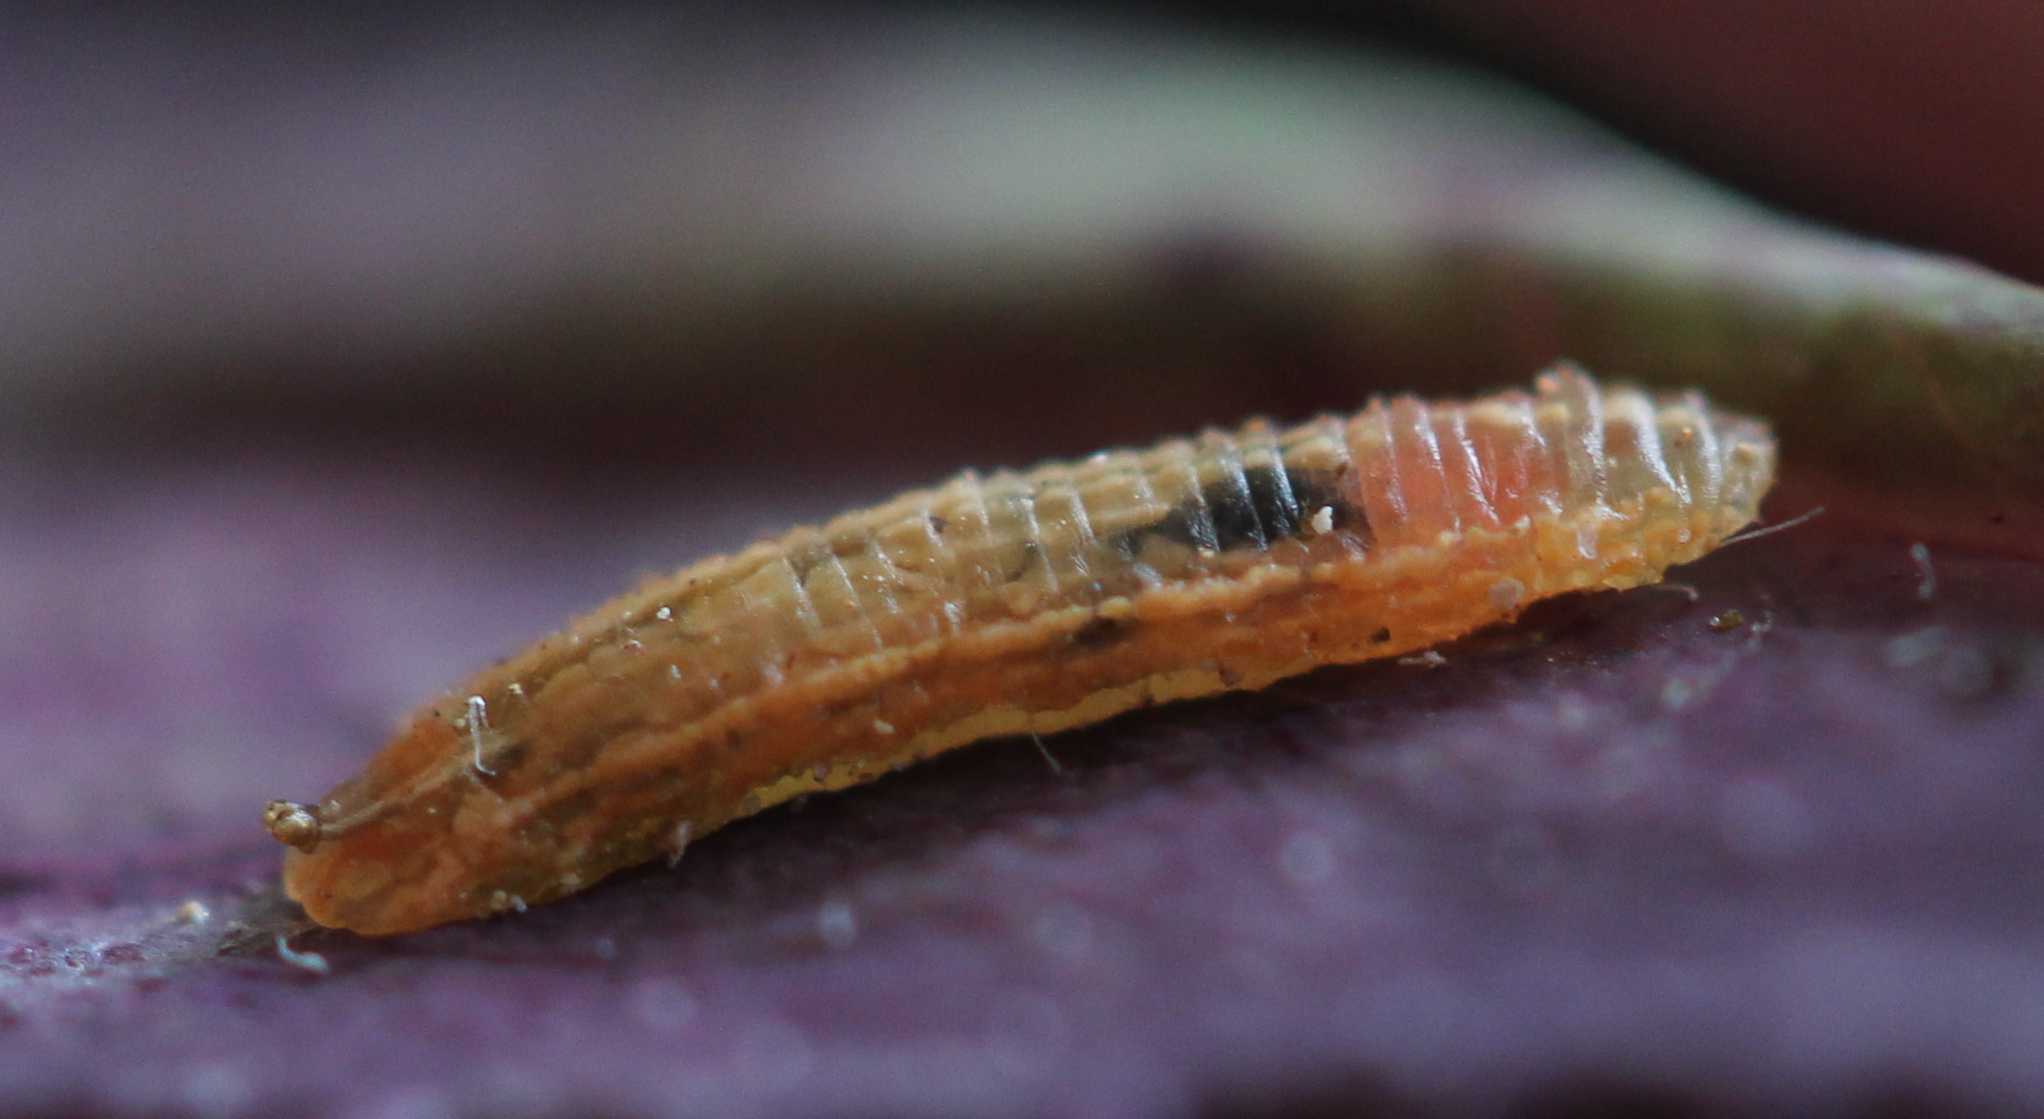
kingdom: Animalia
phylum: Arthropoda
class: Insecta
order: Diptera
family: Syrphidae
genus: Platycheirus
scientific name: Platycheirus
